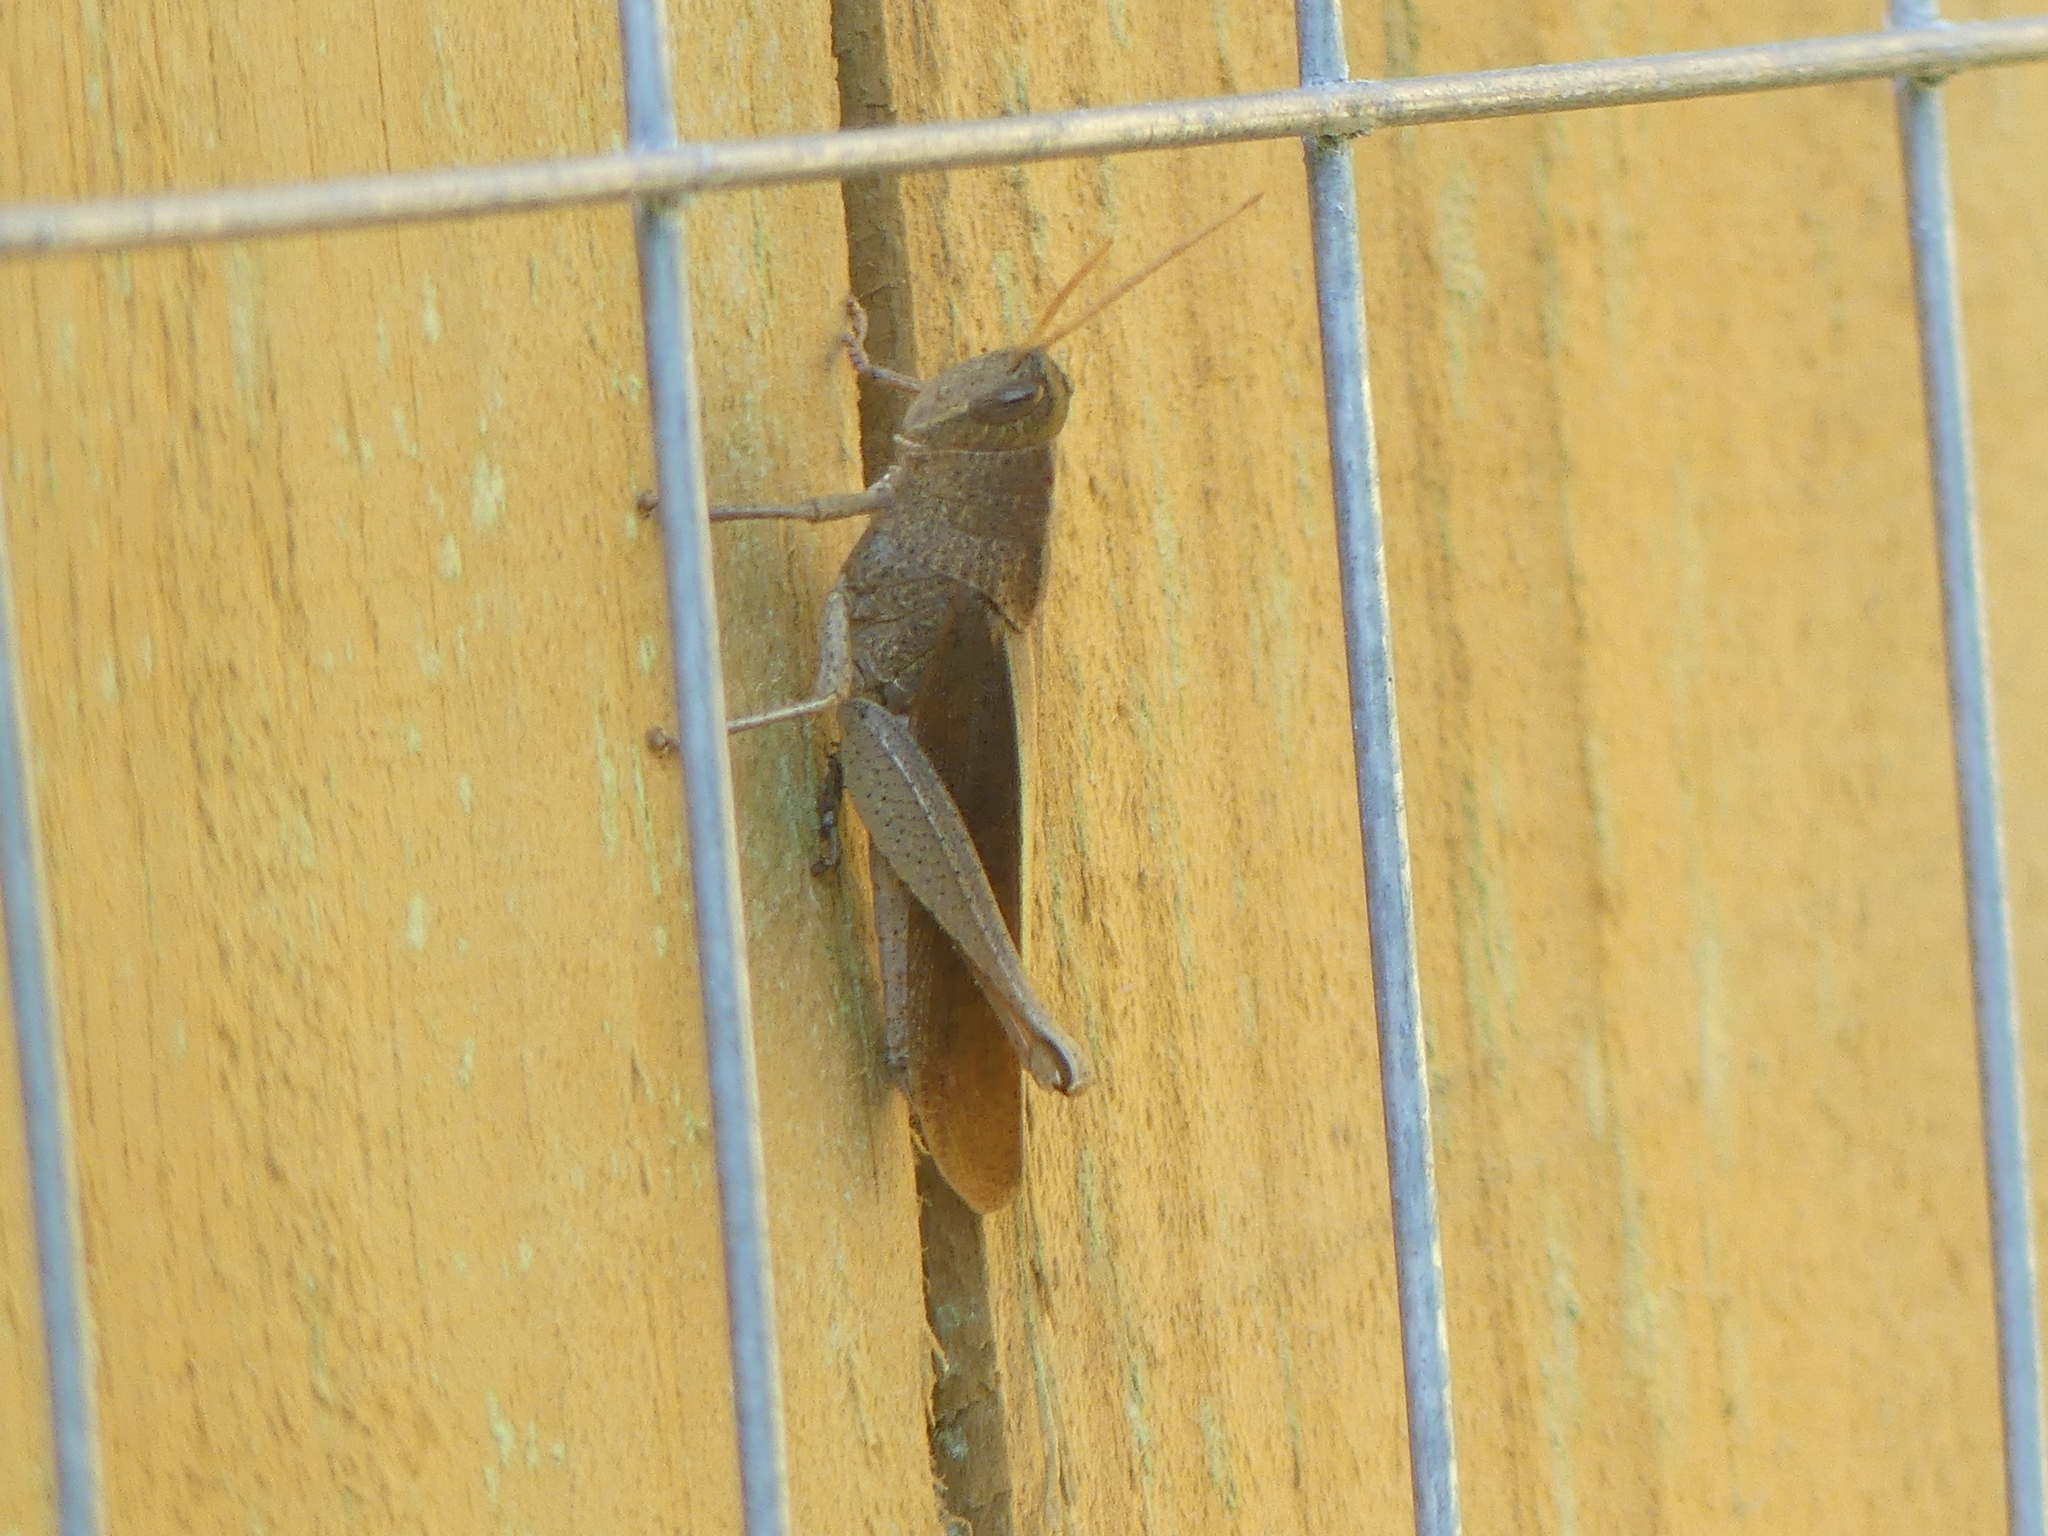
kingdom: Animalia
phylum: Arthropoda
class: Insecta
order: Orthoptera
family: Acrididae
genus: Schistocerca
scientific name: Schistocerca damnifica
